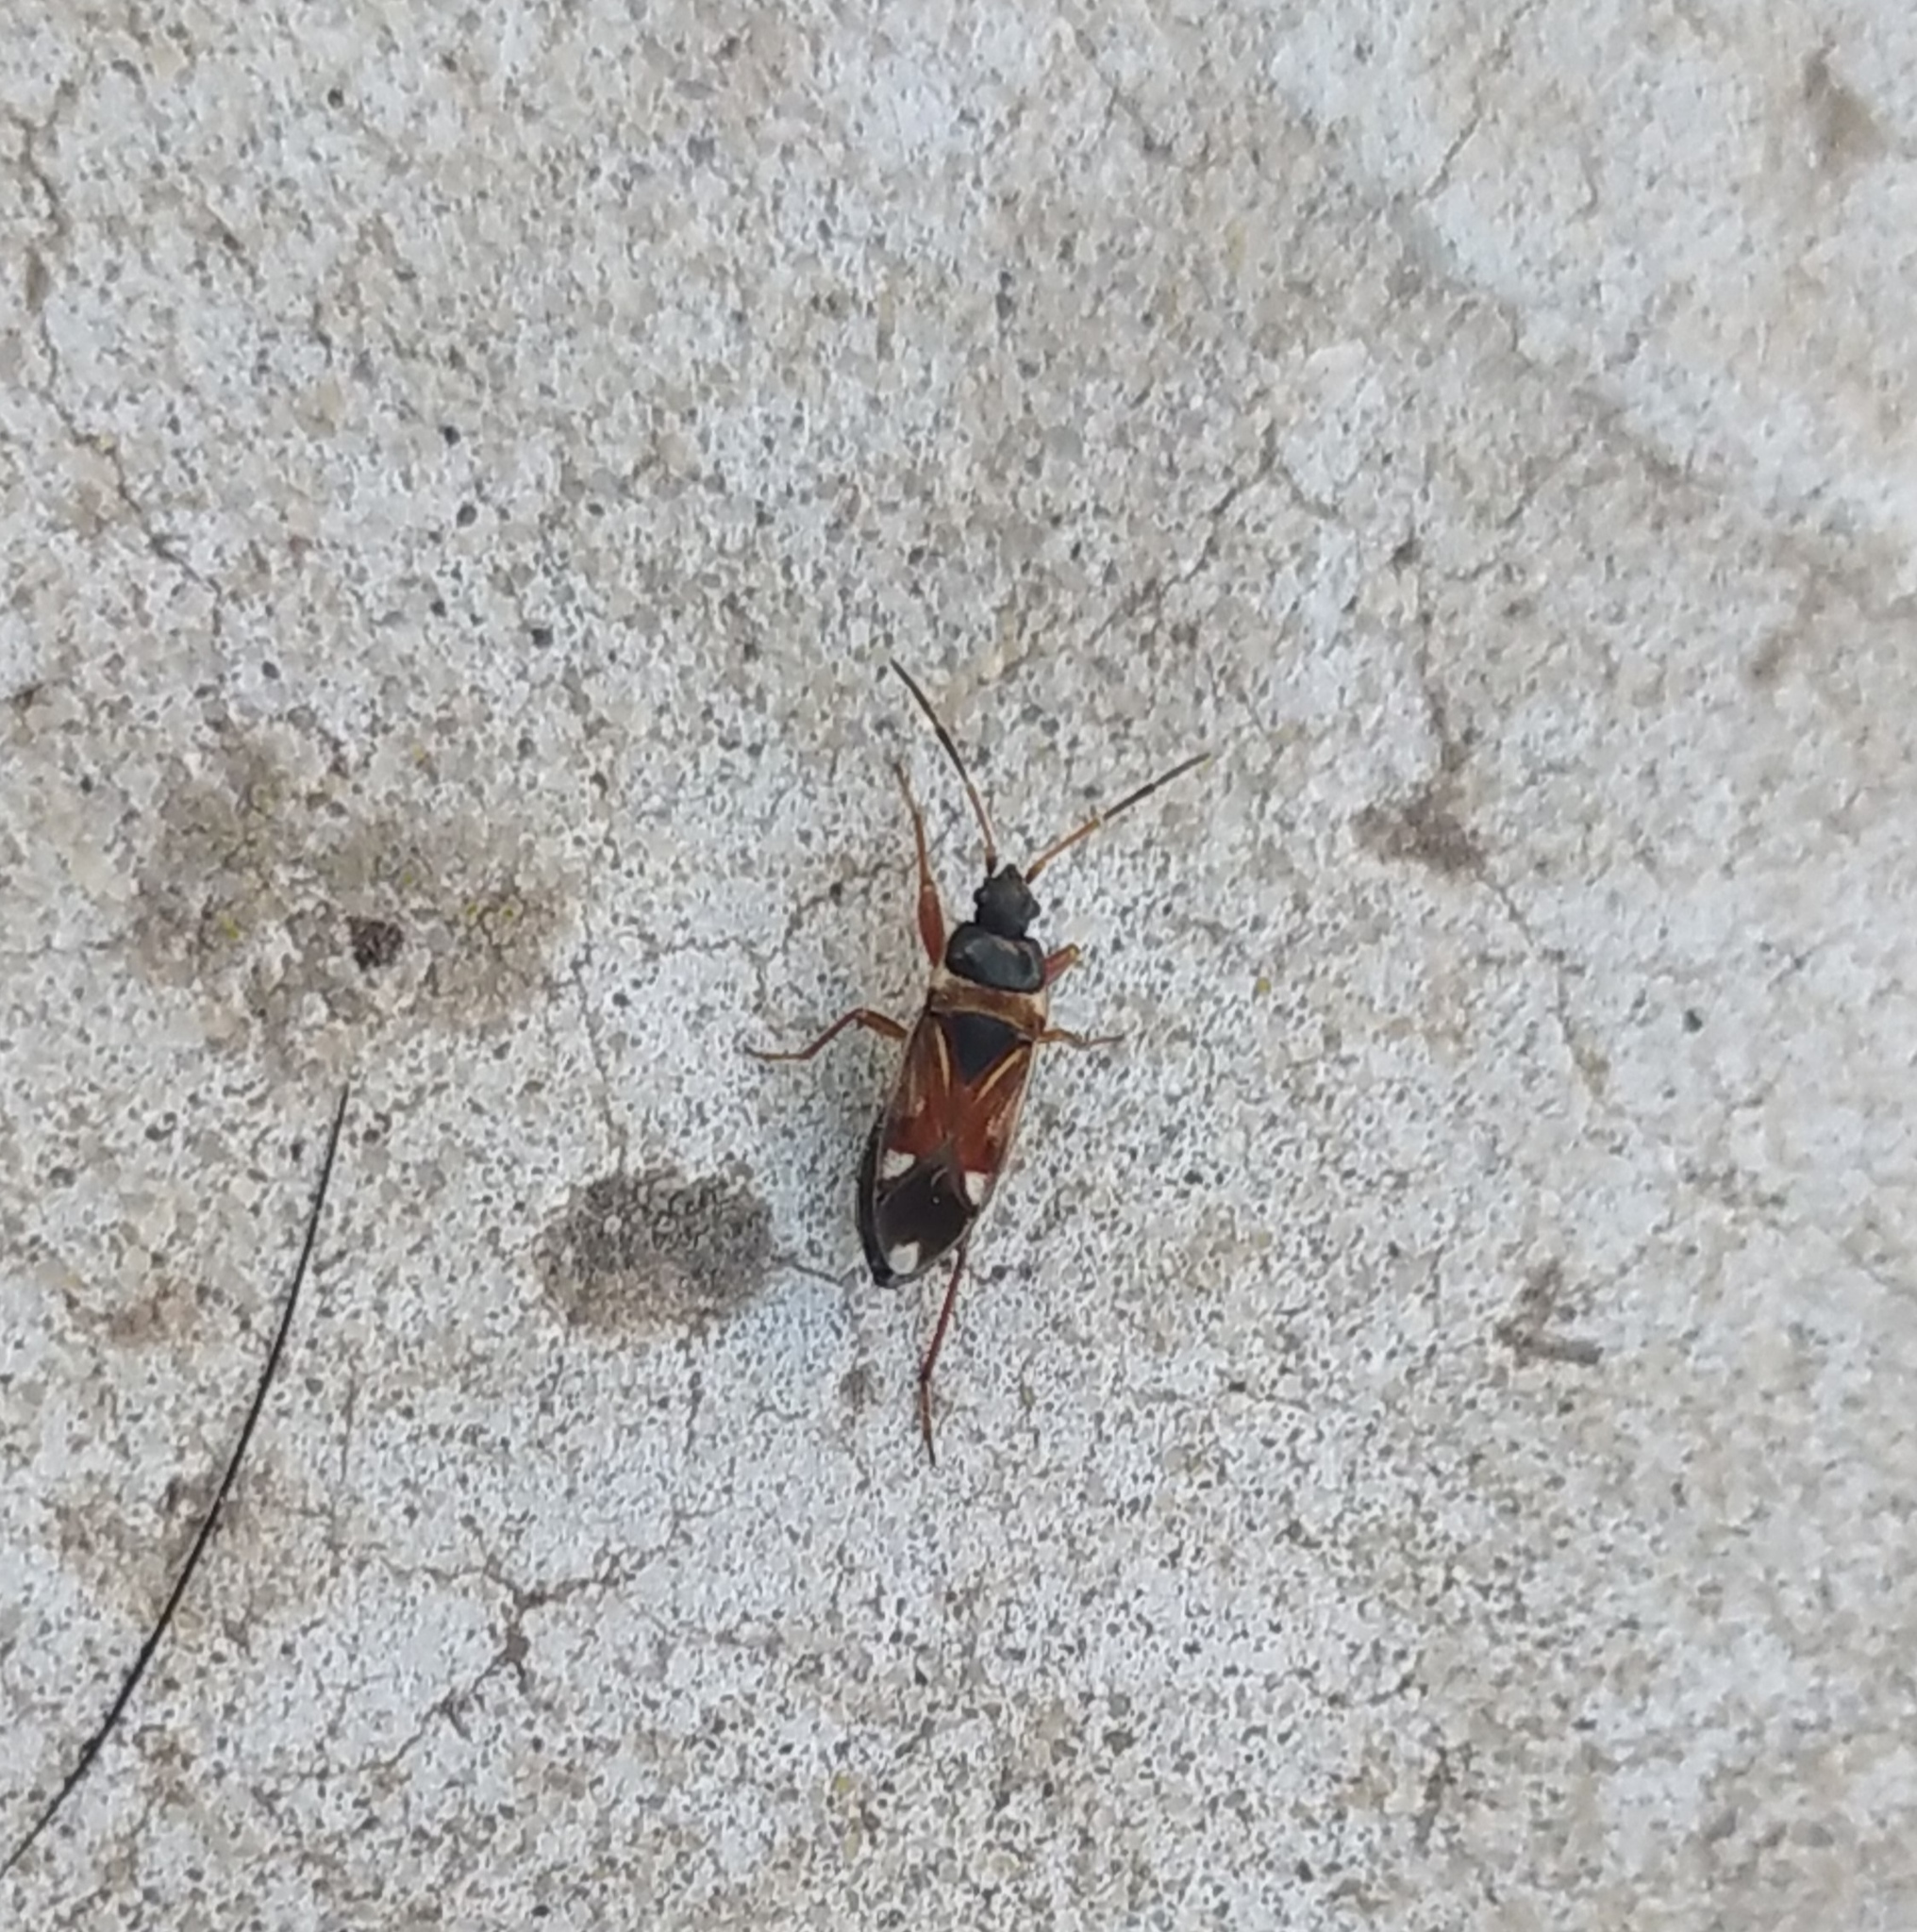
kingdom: Animalia
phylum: Arthropoda
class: Insecta
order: Hemiptera
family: Rhyparochromidae
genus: Raglius
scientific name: Raglius alboacuminatus
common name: Dirt-colored seed bug
